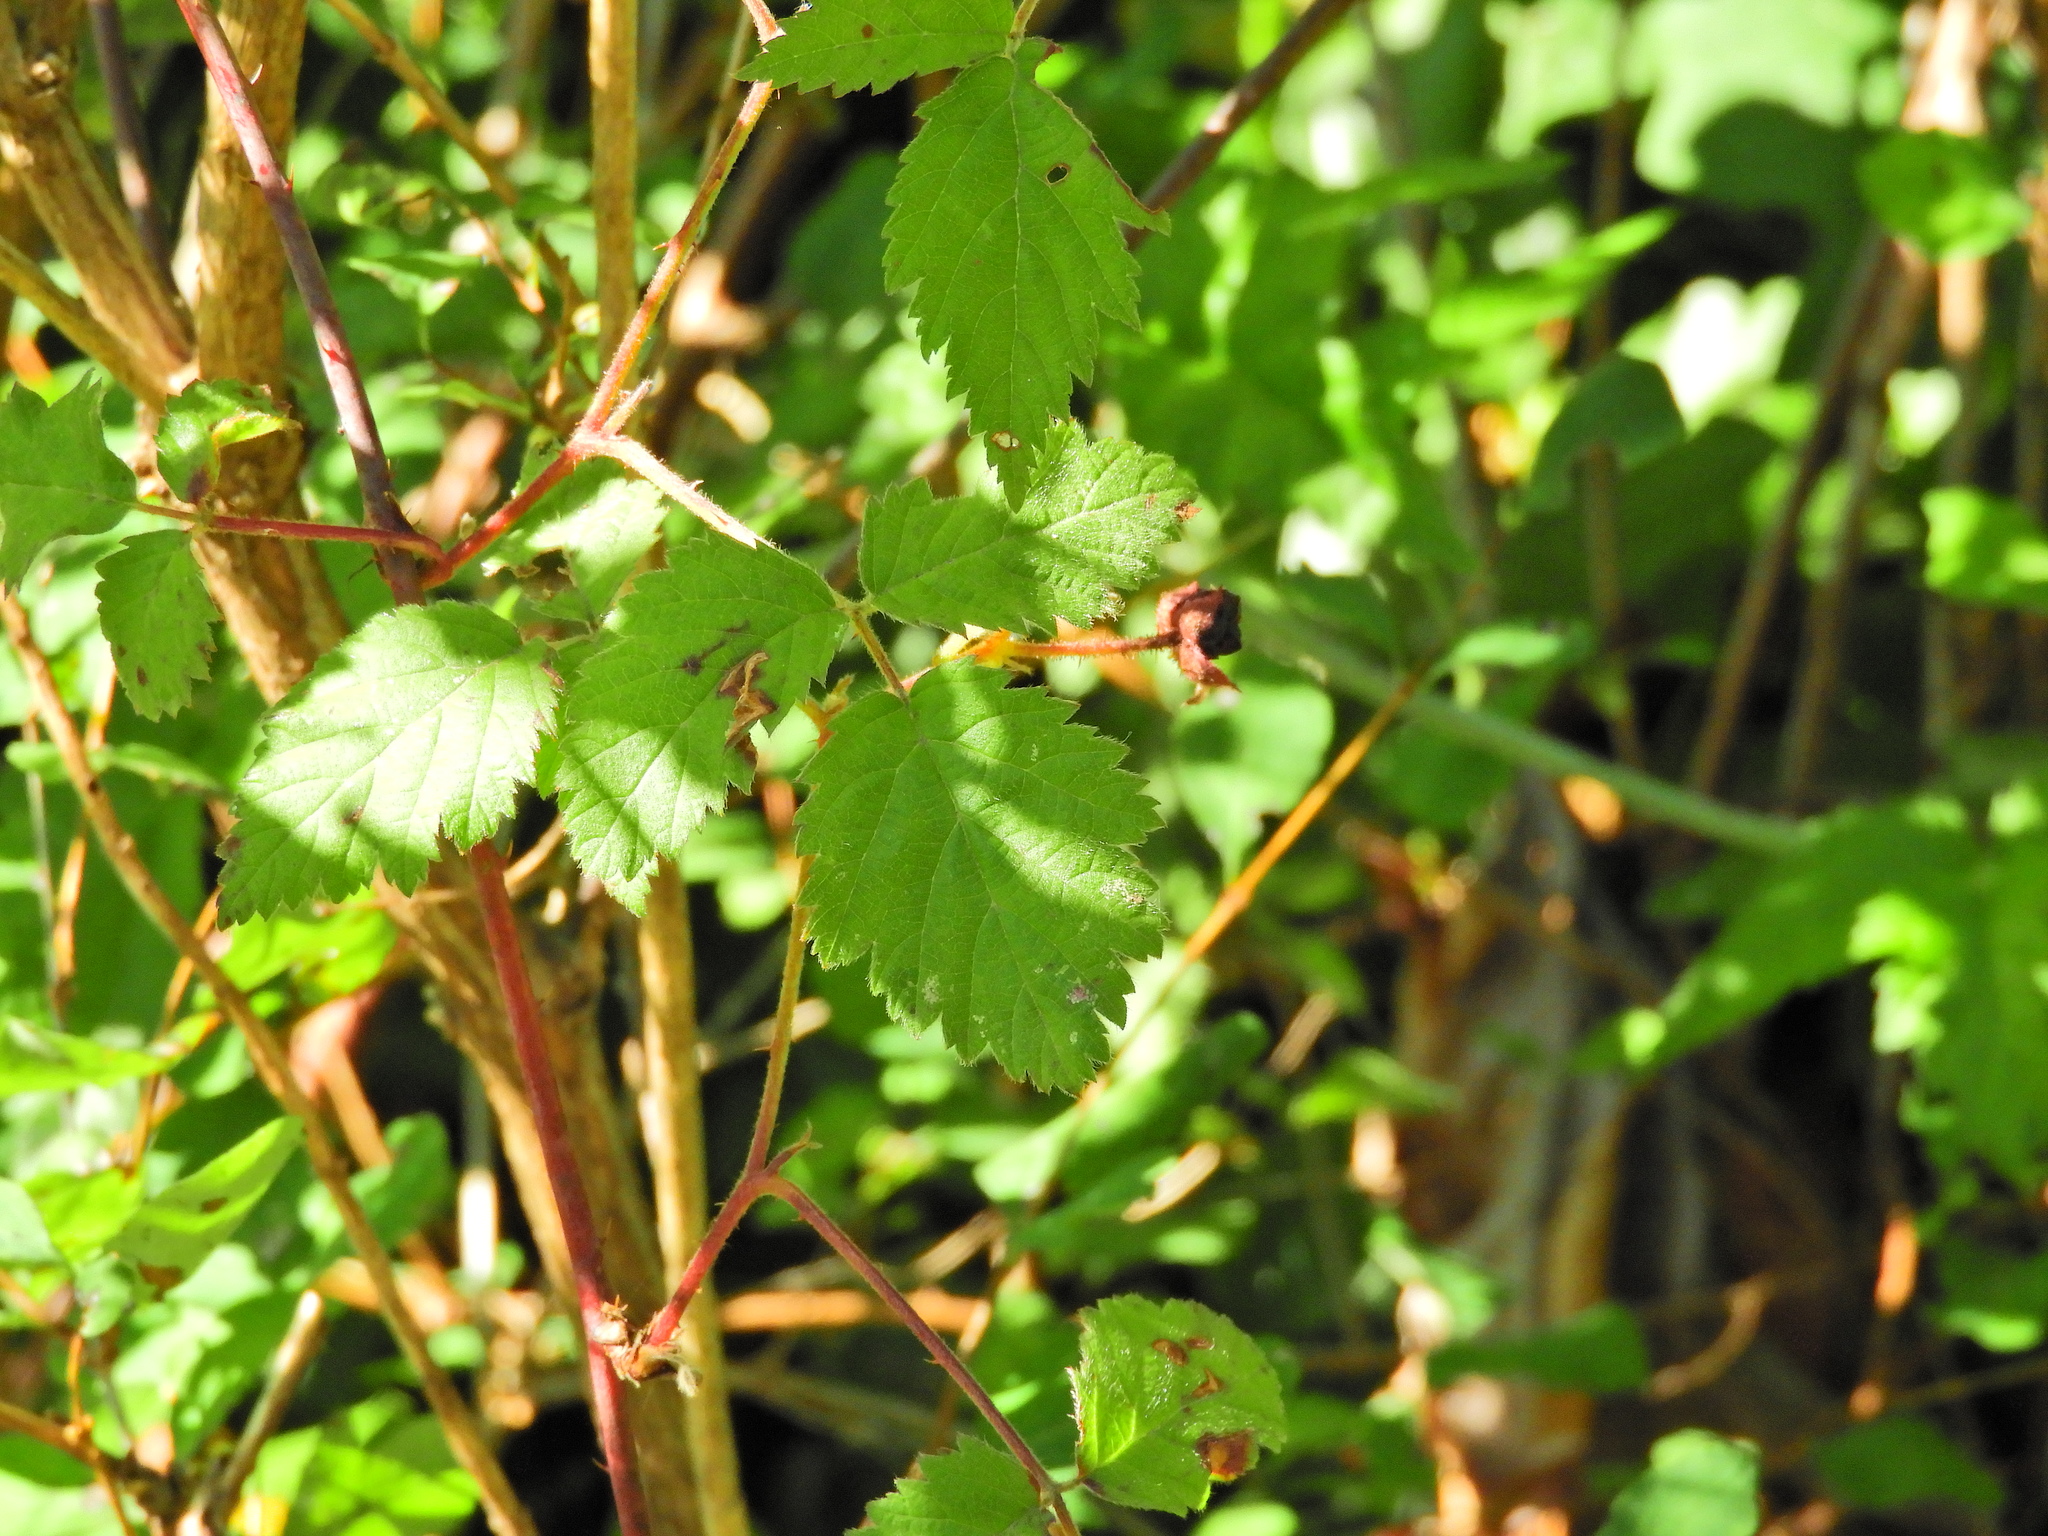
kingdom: Plantae
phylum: Tracheophyta
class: Magnoliopsida
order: Dipsacales
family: Caprifoliaceae
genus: Symphoricarpos
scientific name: Symphoricarpos albus
